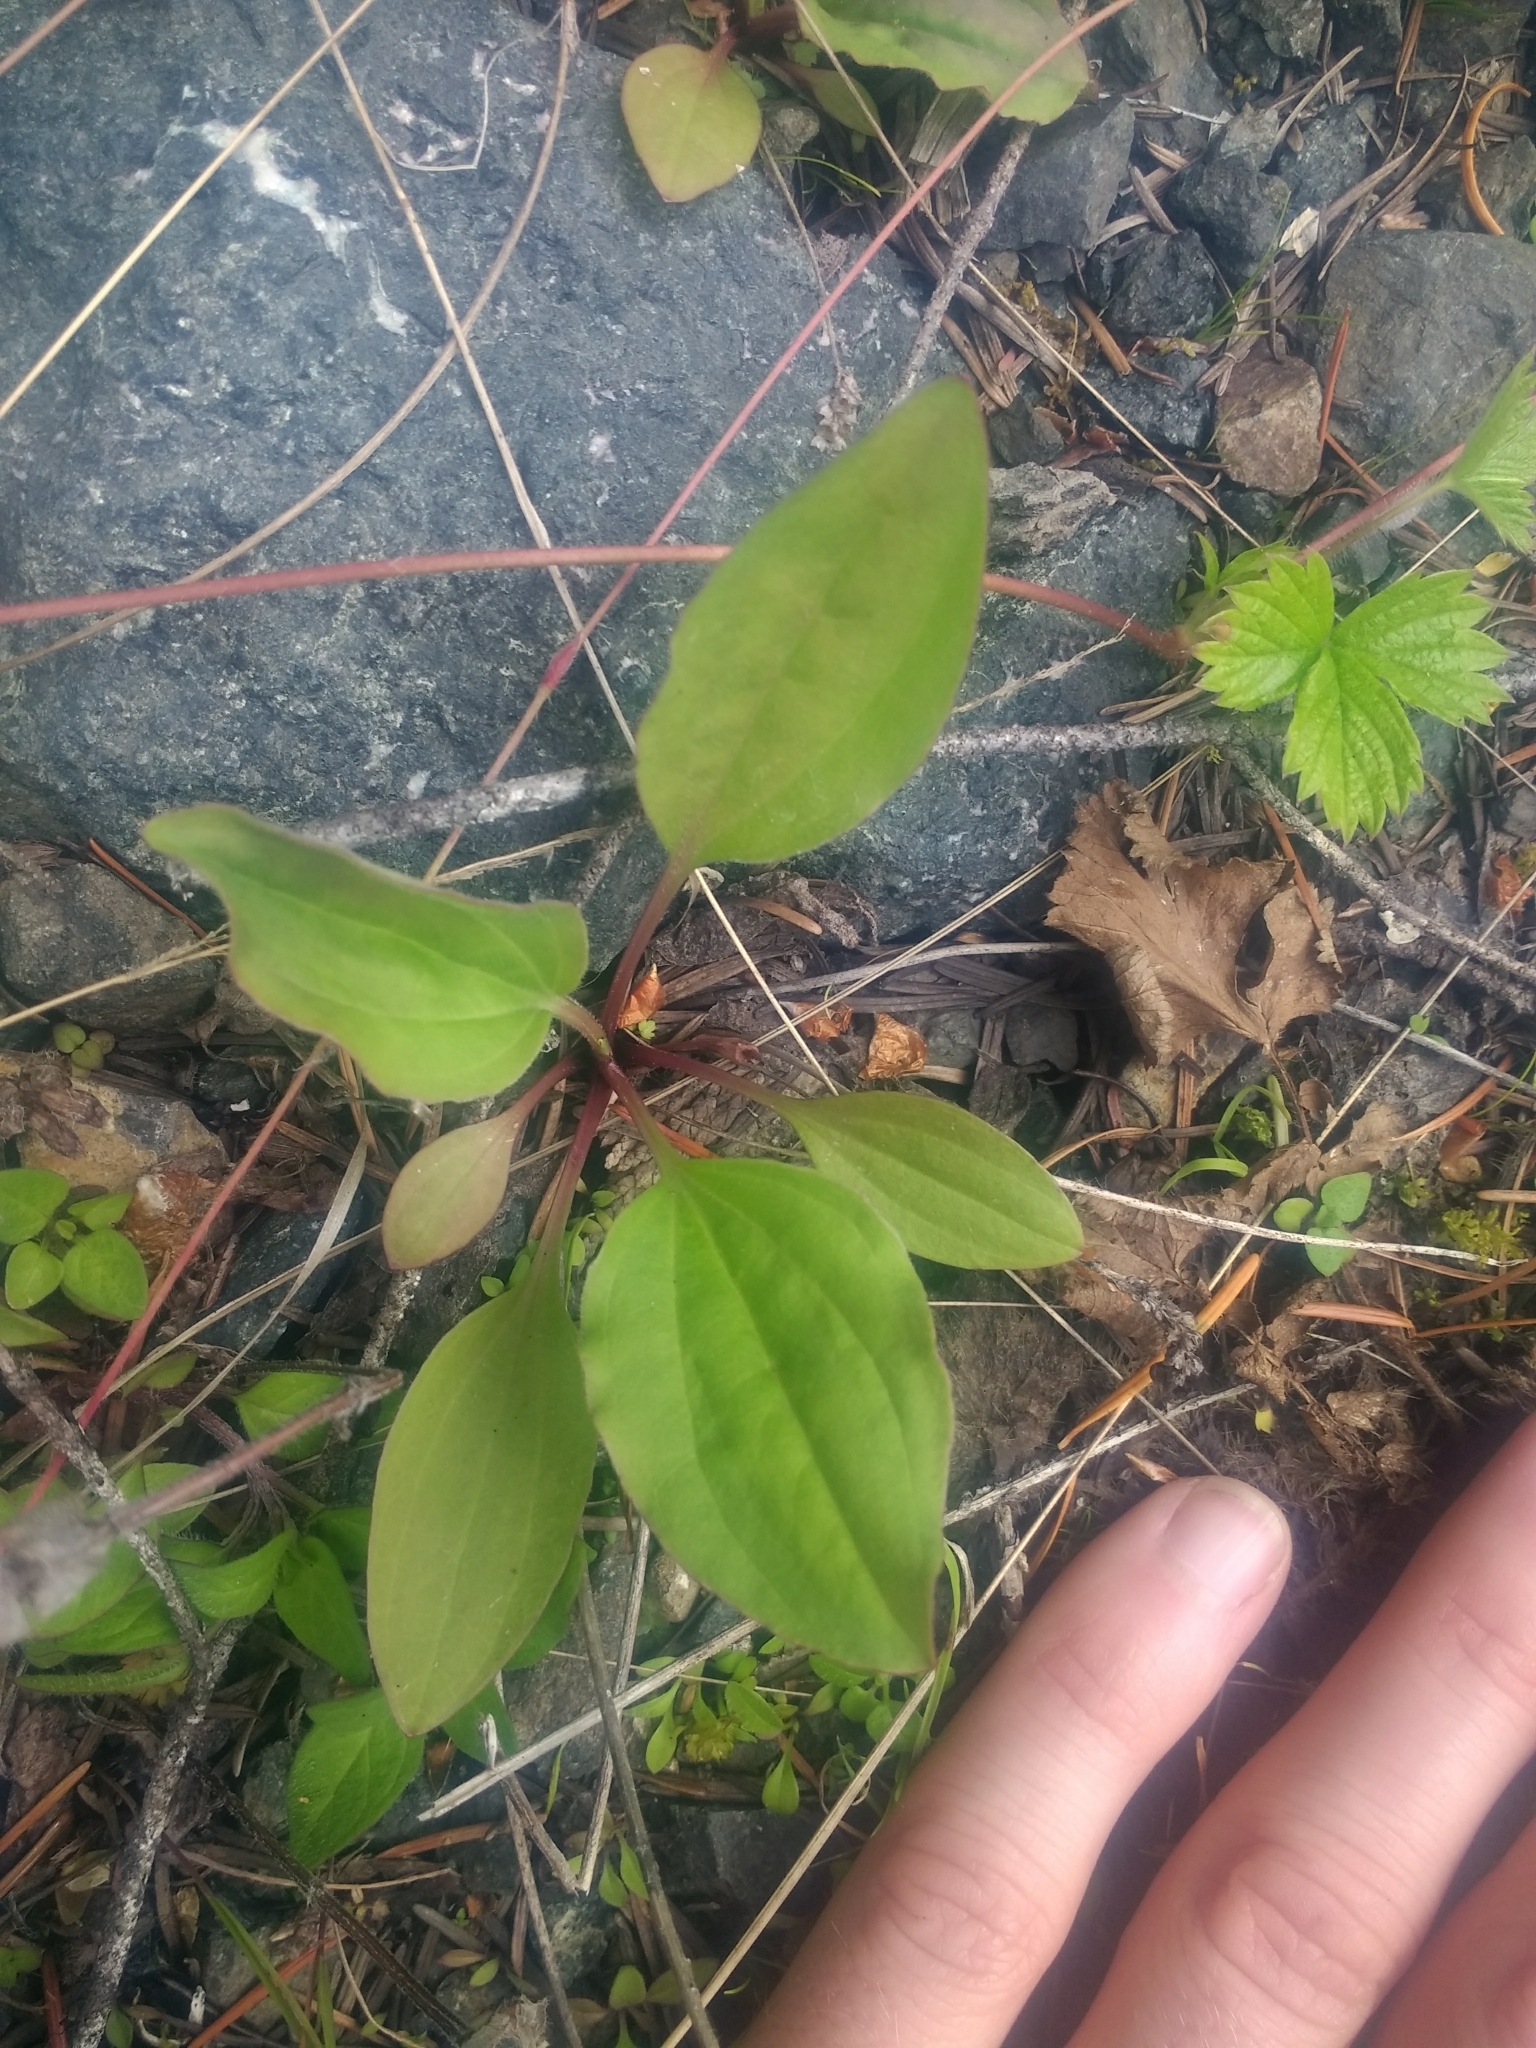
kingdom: Plantae
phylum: Tracheophyta
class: Magnoliopsida
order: Lamiales
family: Plantaginaceae
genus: Plantago
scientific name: Plantago major
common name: Common plantain
